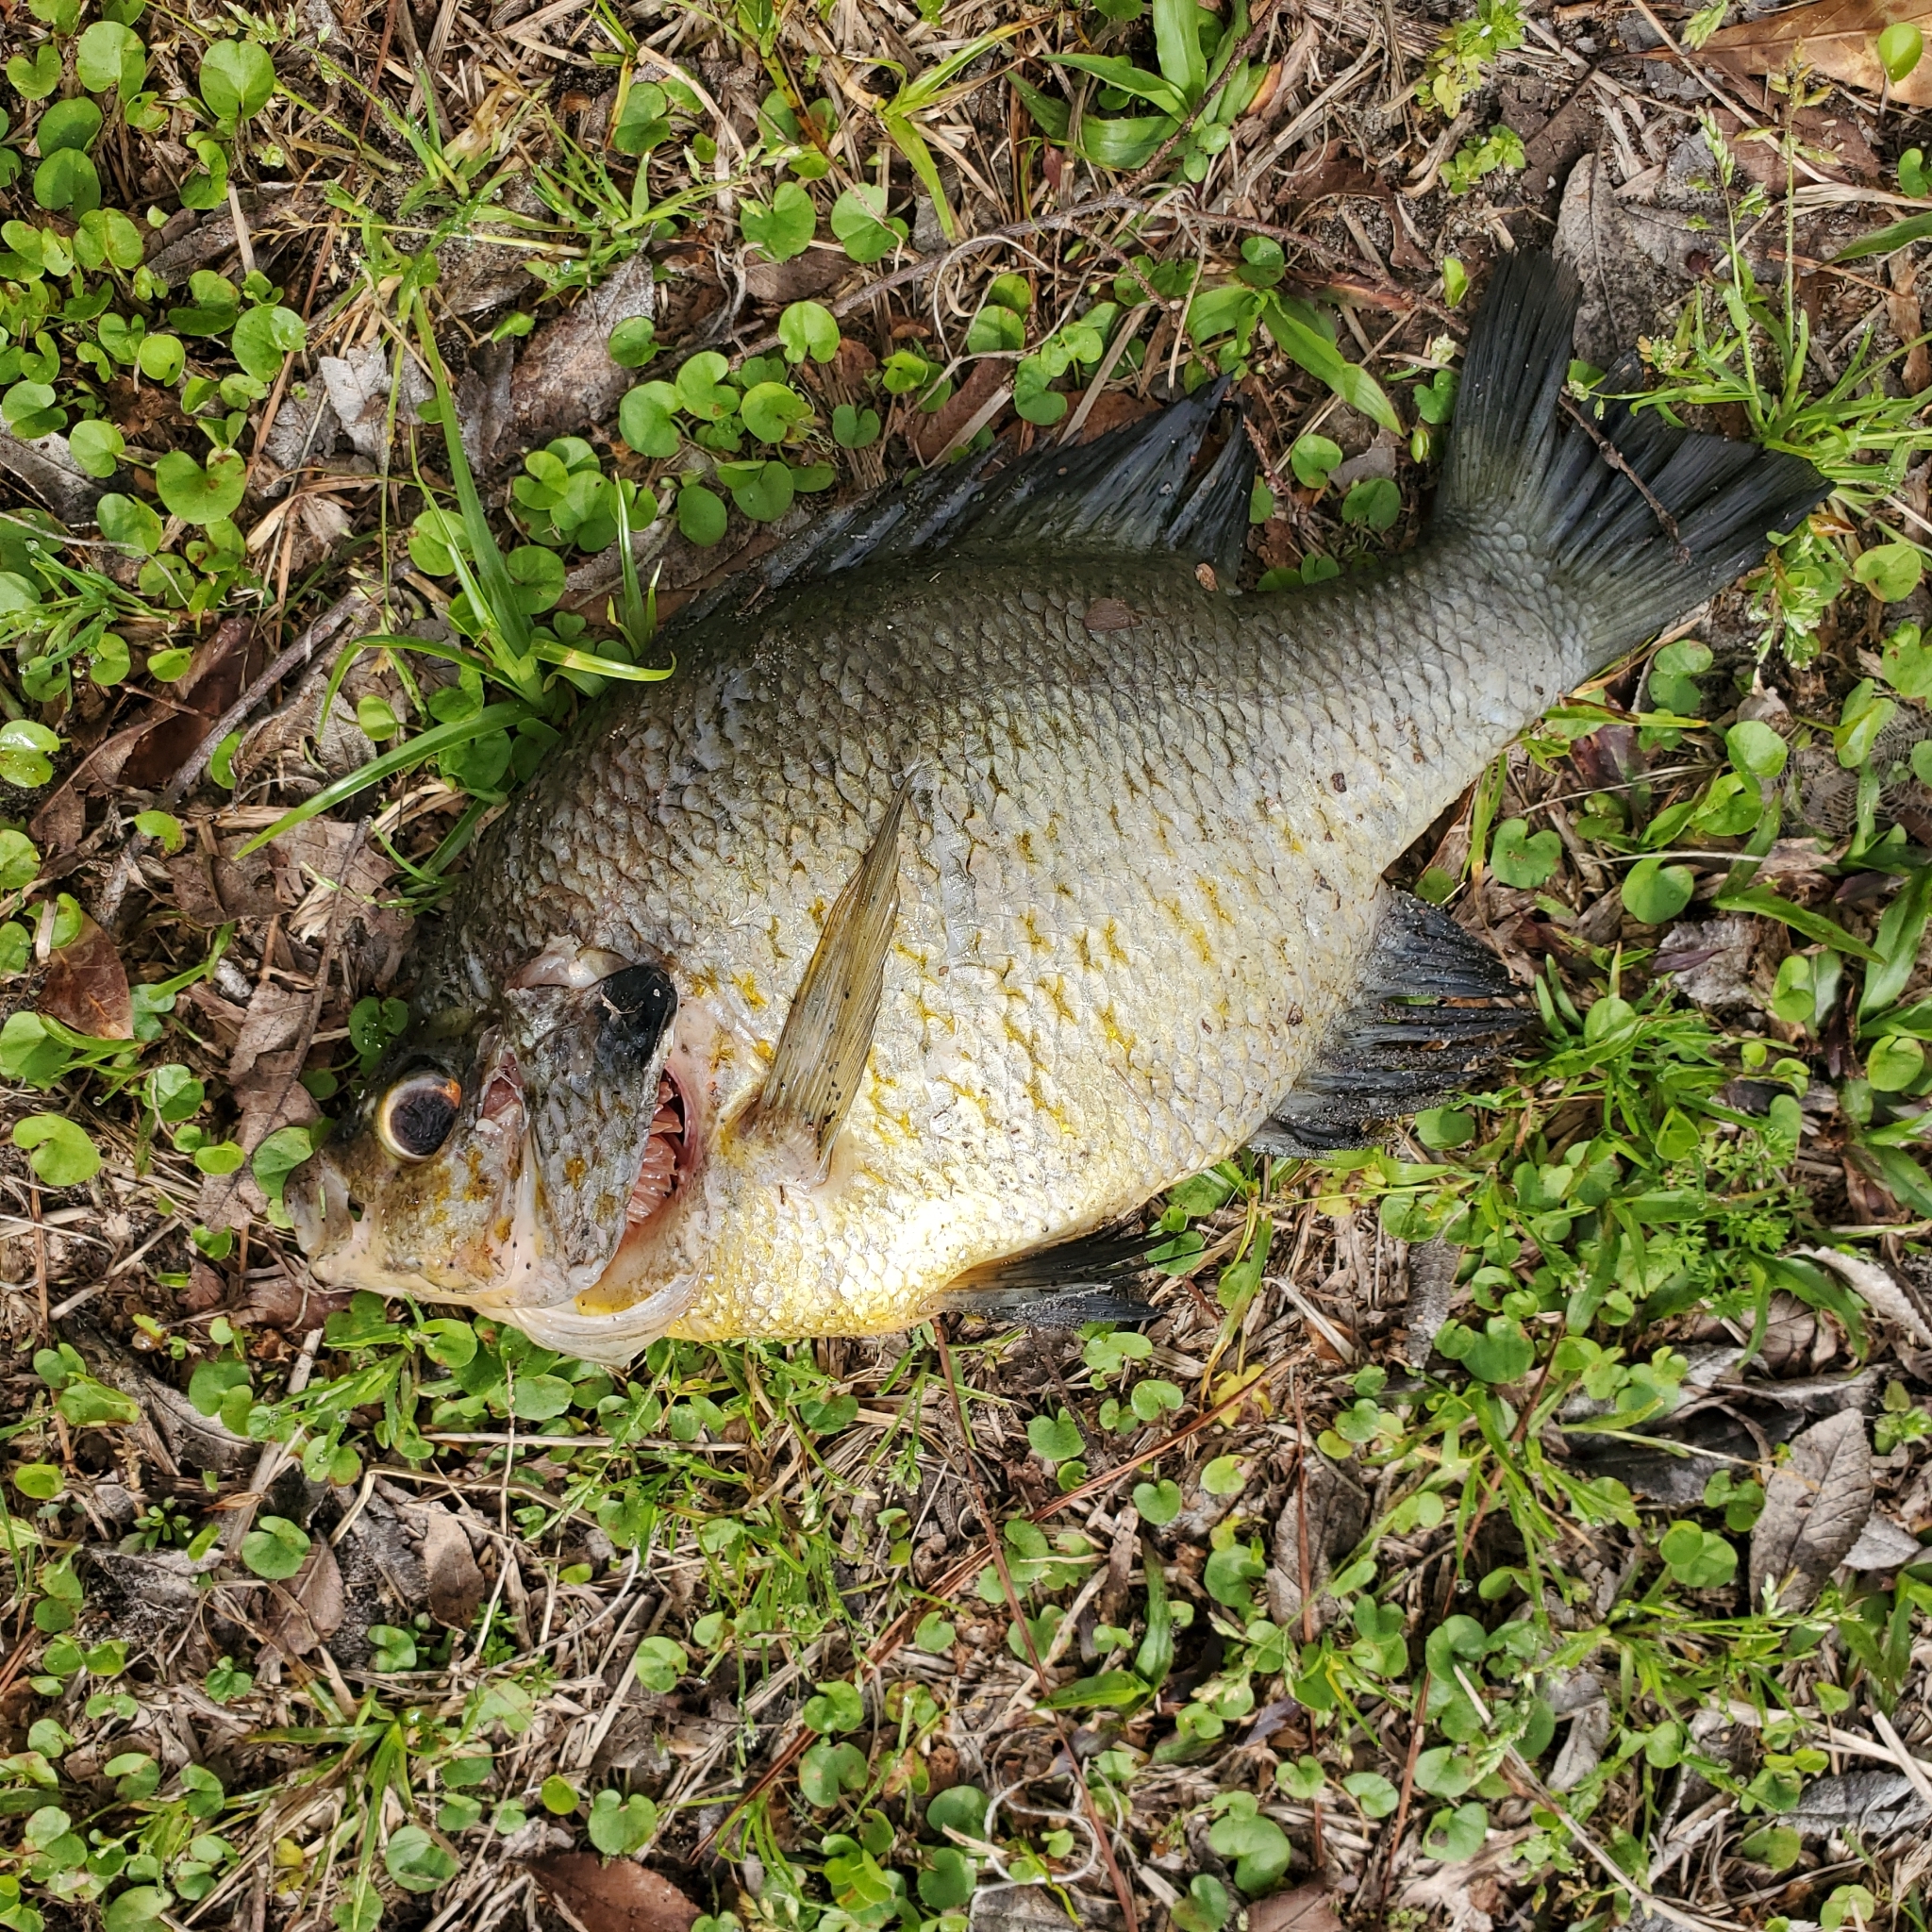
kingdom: Animalia
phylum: Chordata
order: Perciformes
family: Centrarchidae
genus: Lepomis
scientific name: Lepomis microlophus
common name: Redear sunfish
